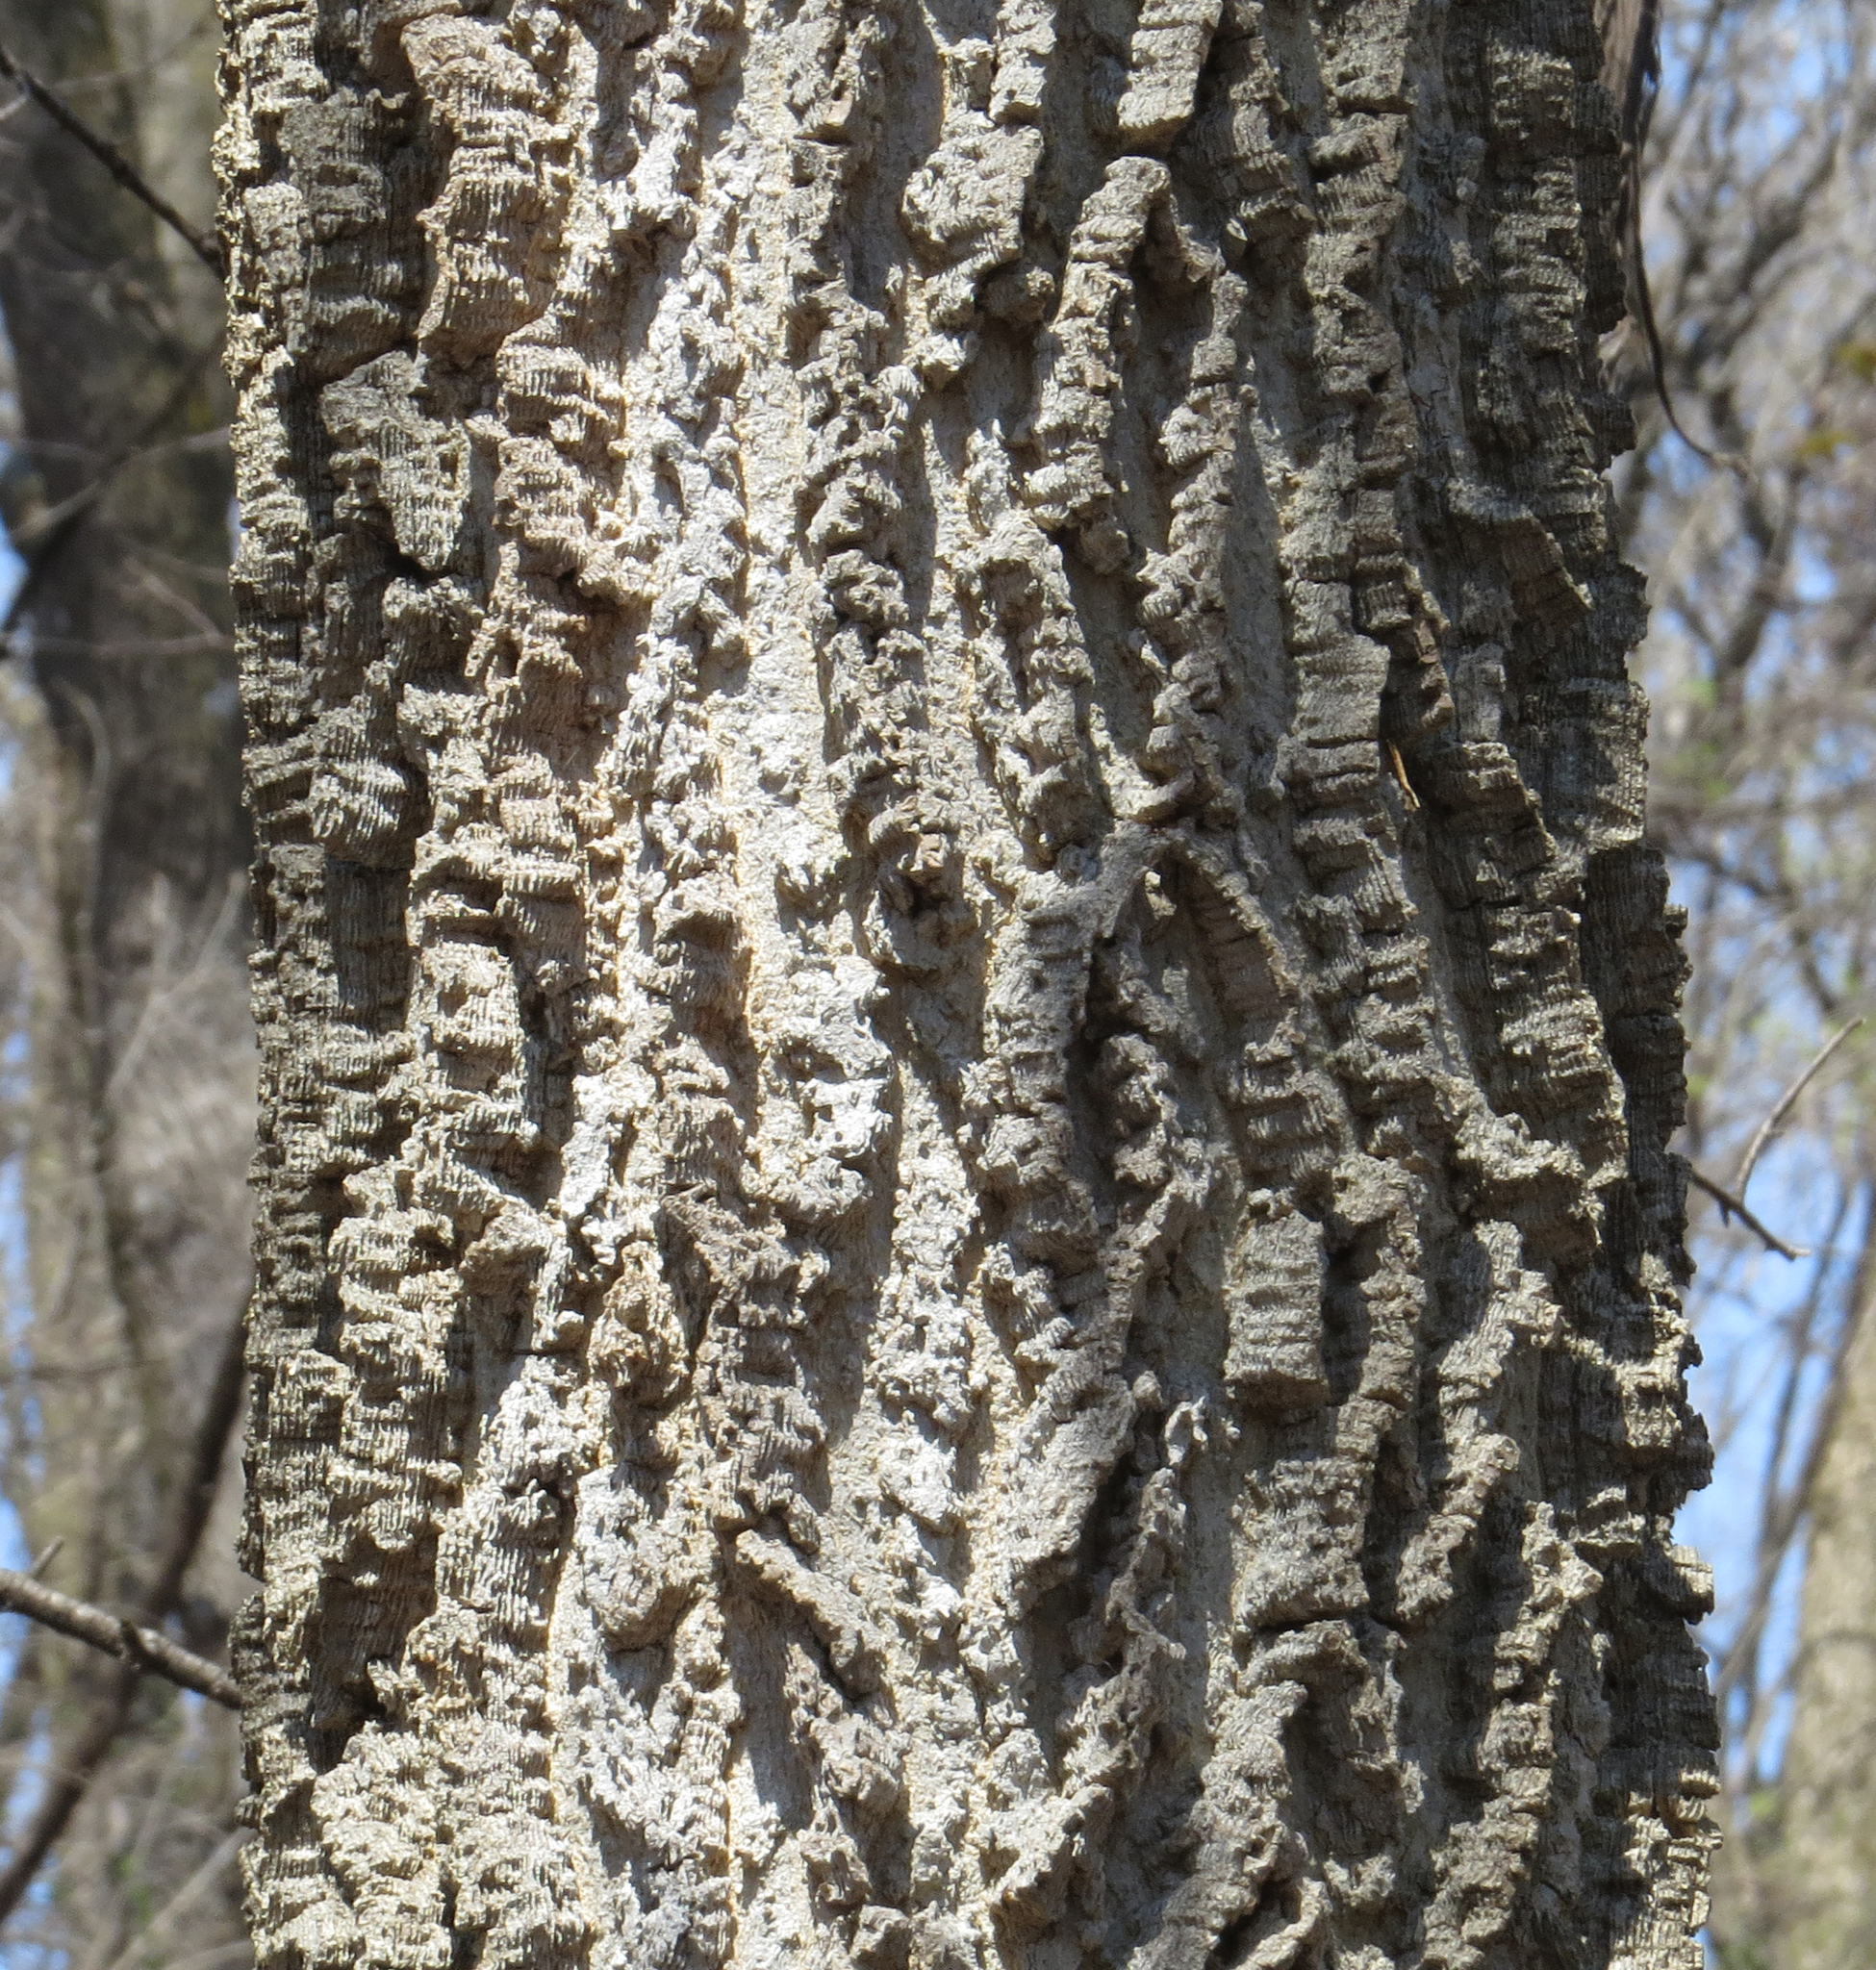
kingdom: Plantae
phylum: Tracheophyta
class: Magnoliopsida
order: Rosales
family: Cannabaceae
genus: Celtis
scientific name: Celtis occidentalis
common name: Common hackberry
